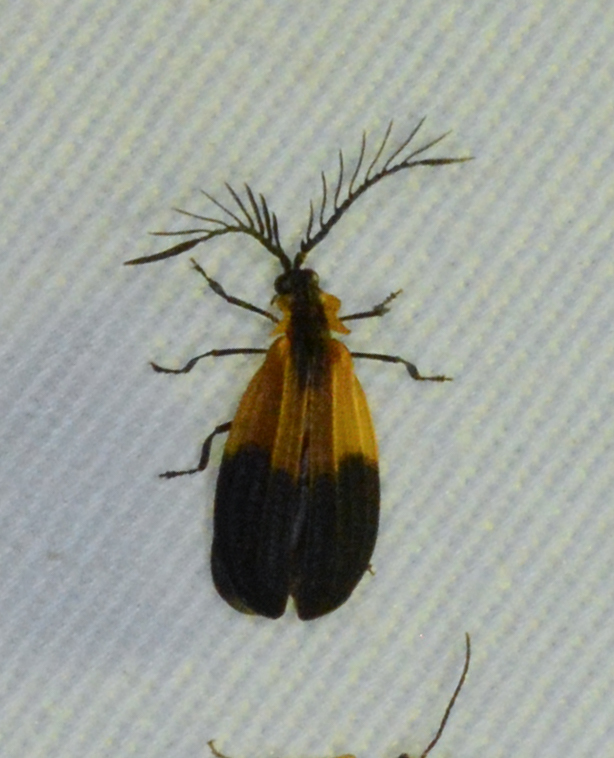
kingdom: Animalia
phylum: Arthropoda
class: Insecta
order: Coleoptera
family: Lycidae
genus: Caenia
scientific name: Caenia dimidiata
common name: Terminal net-winged beetle
